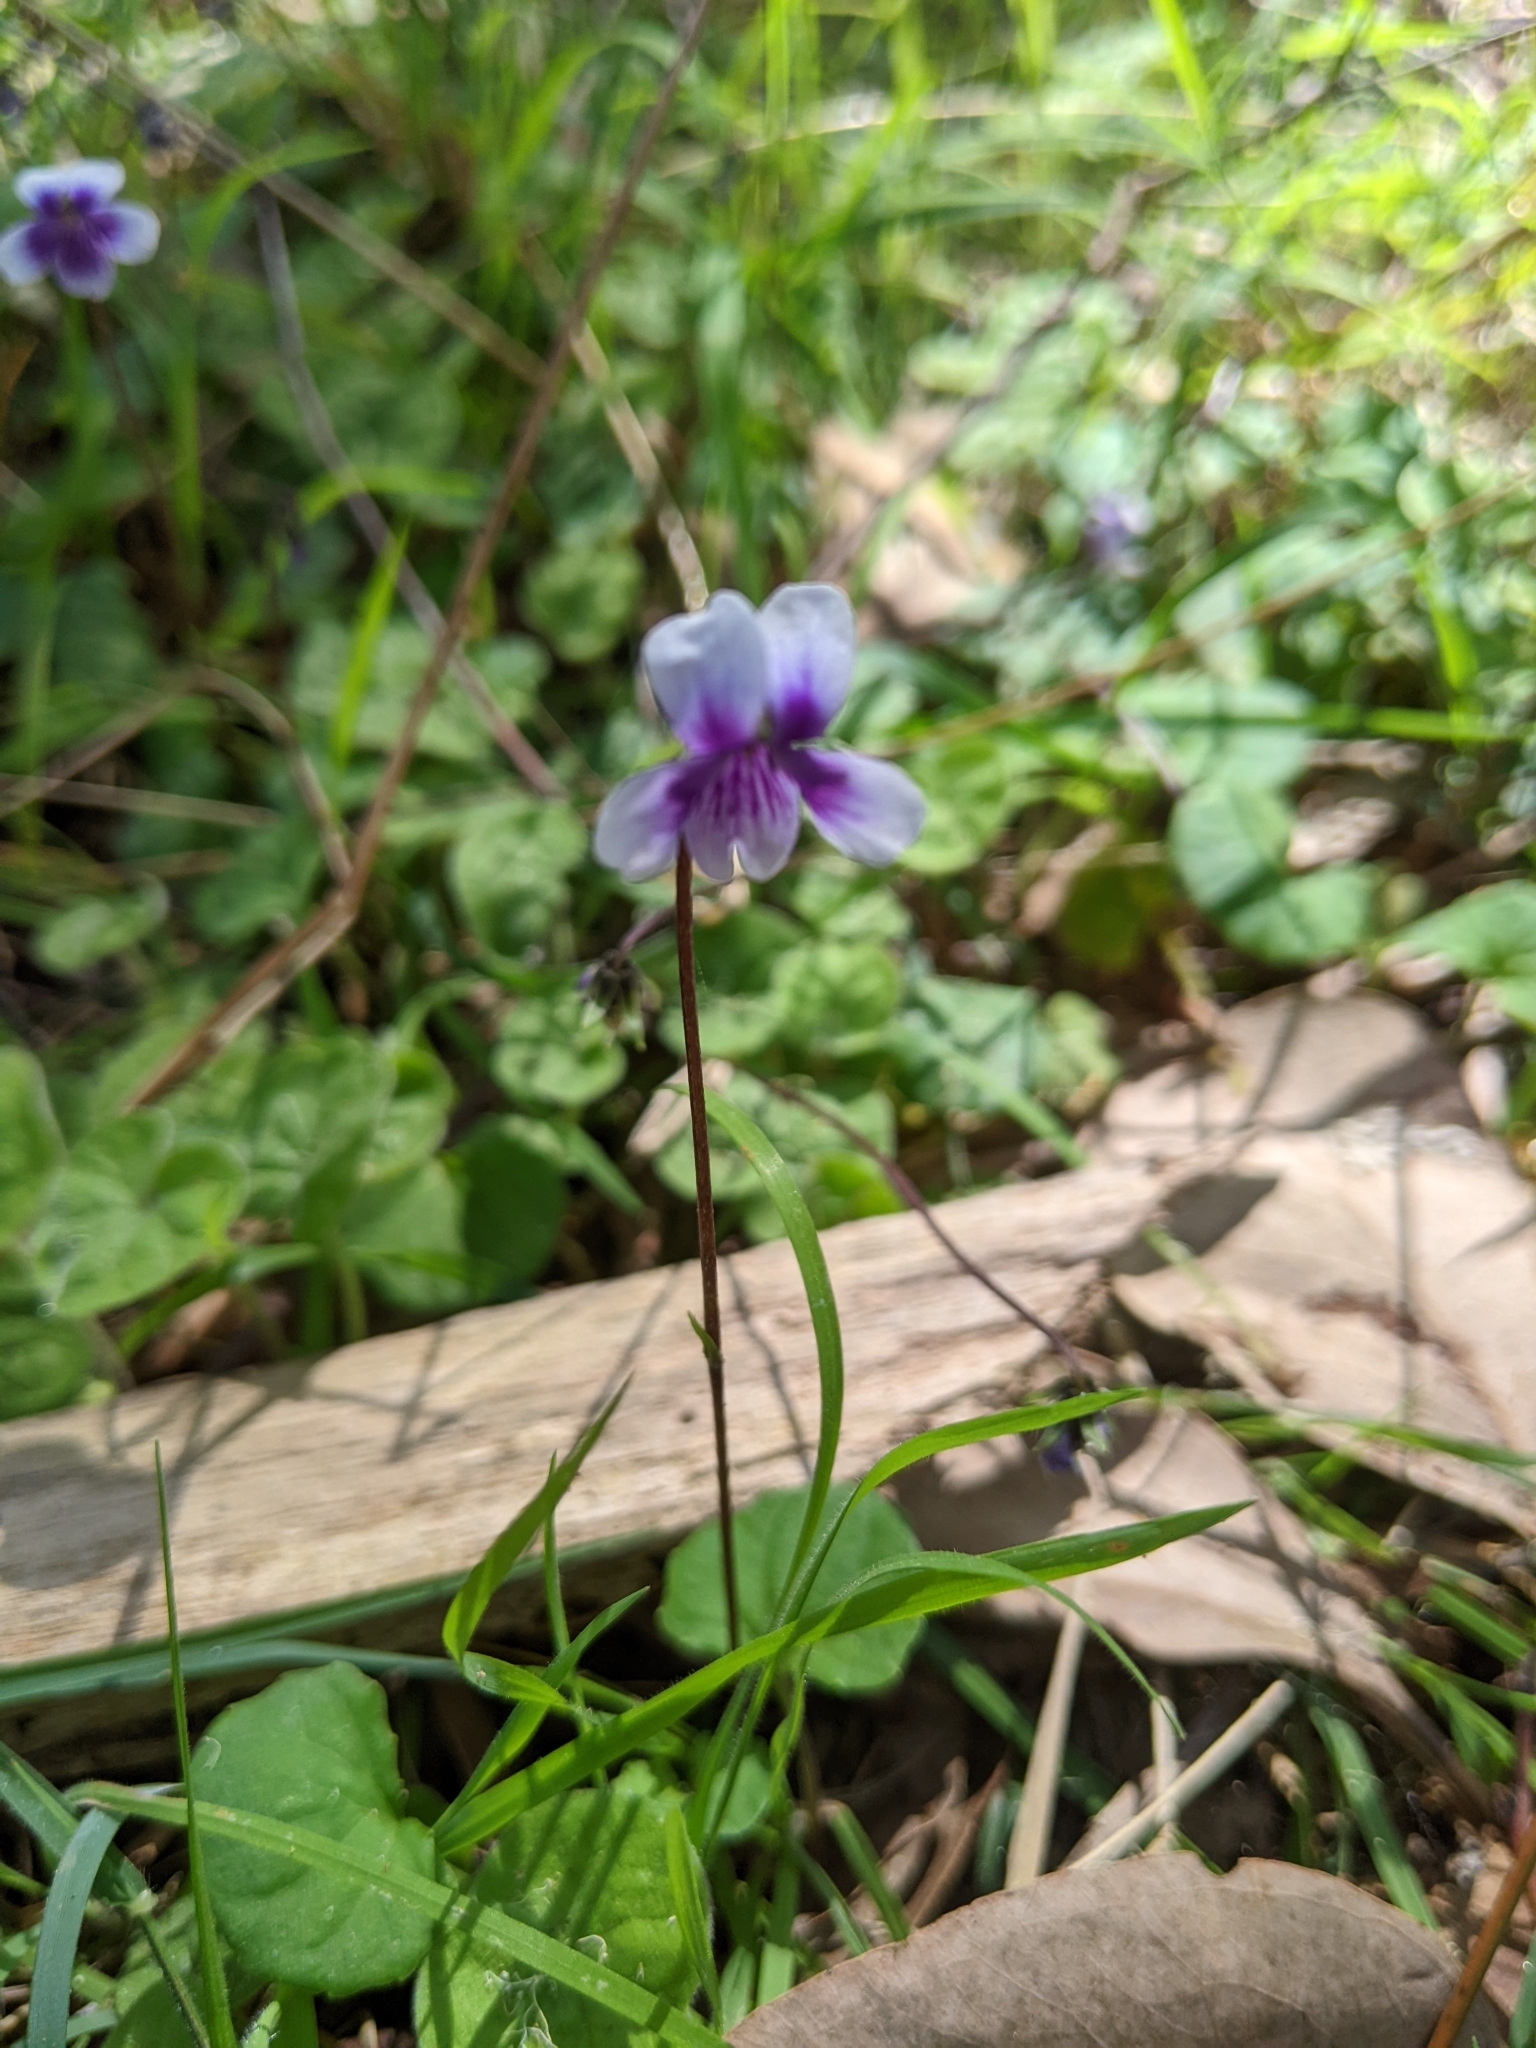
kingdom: Plantae
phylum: Tracheophyta
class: Magnoliopsida
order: Malpighiales
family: Violaceae
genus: Viola
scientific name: Viola hederacea
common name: Australian violet
